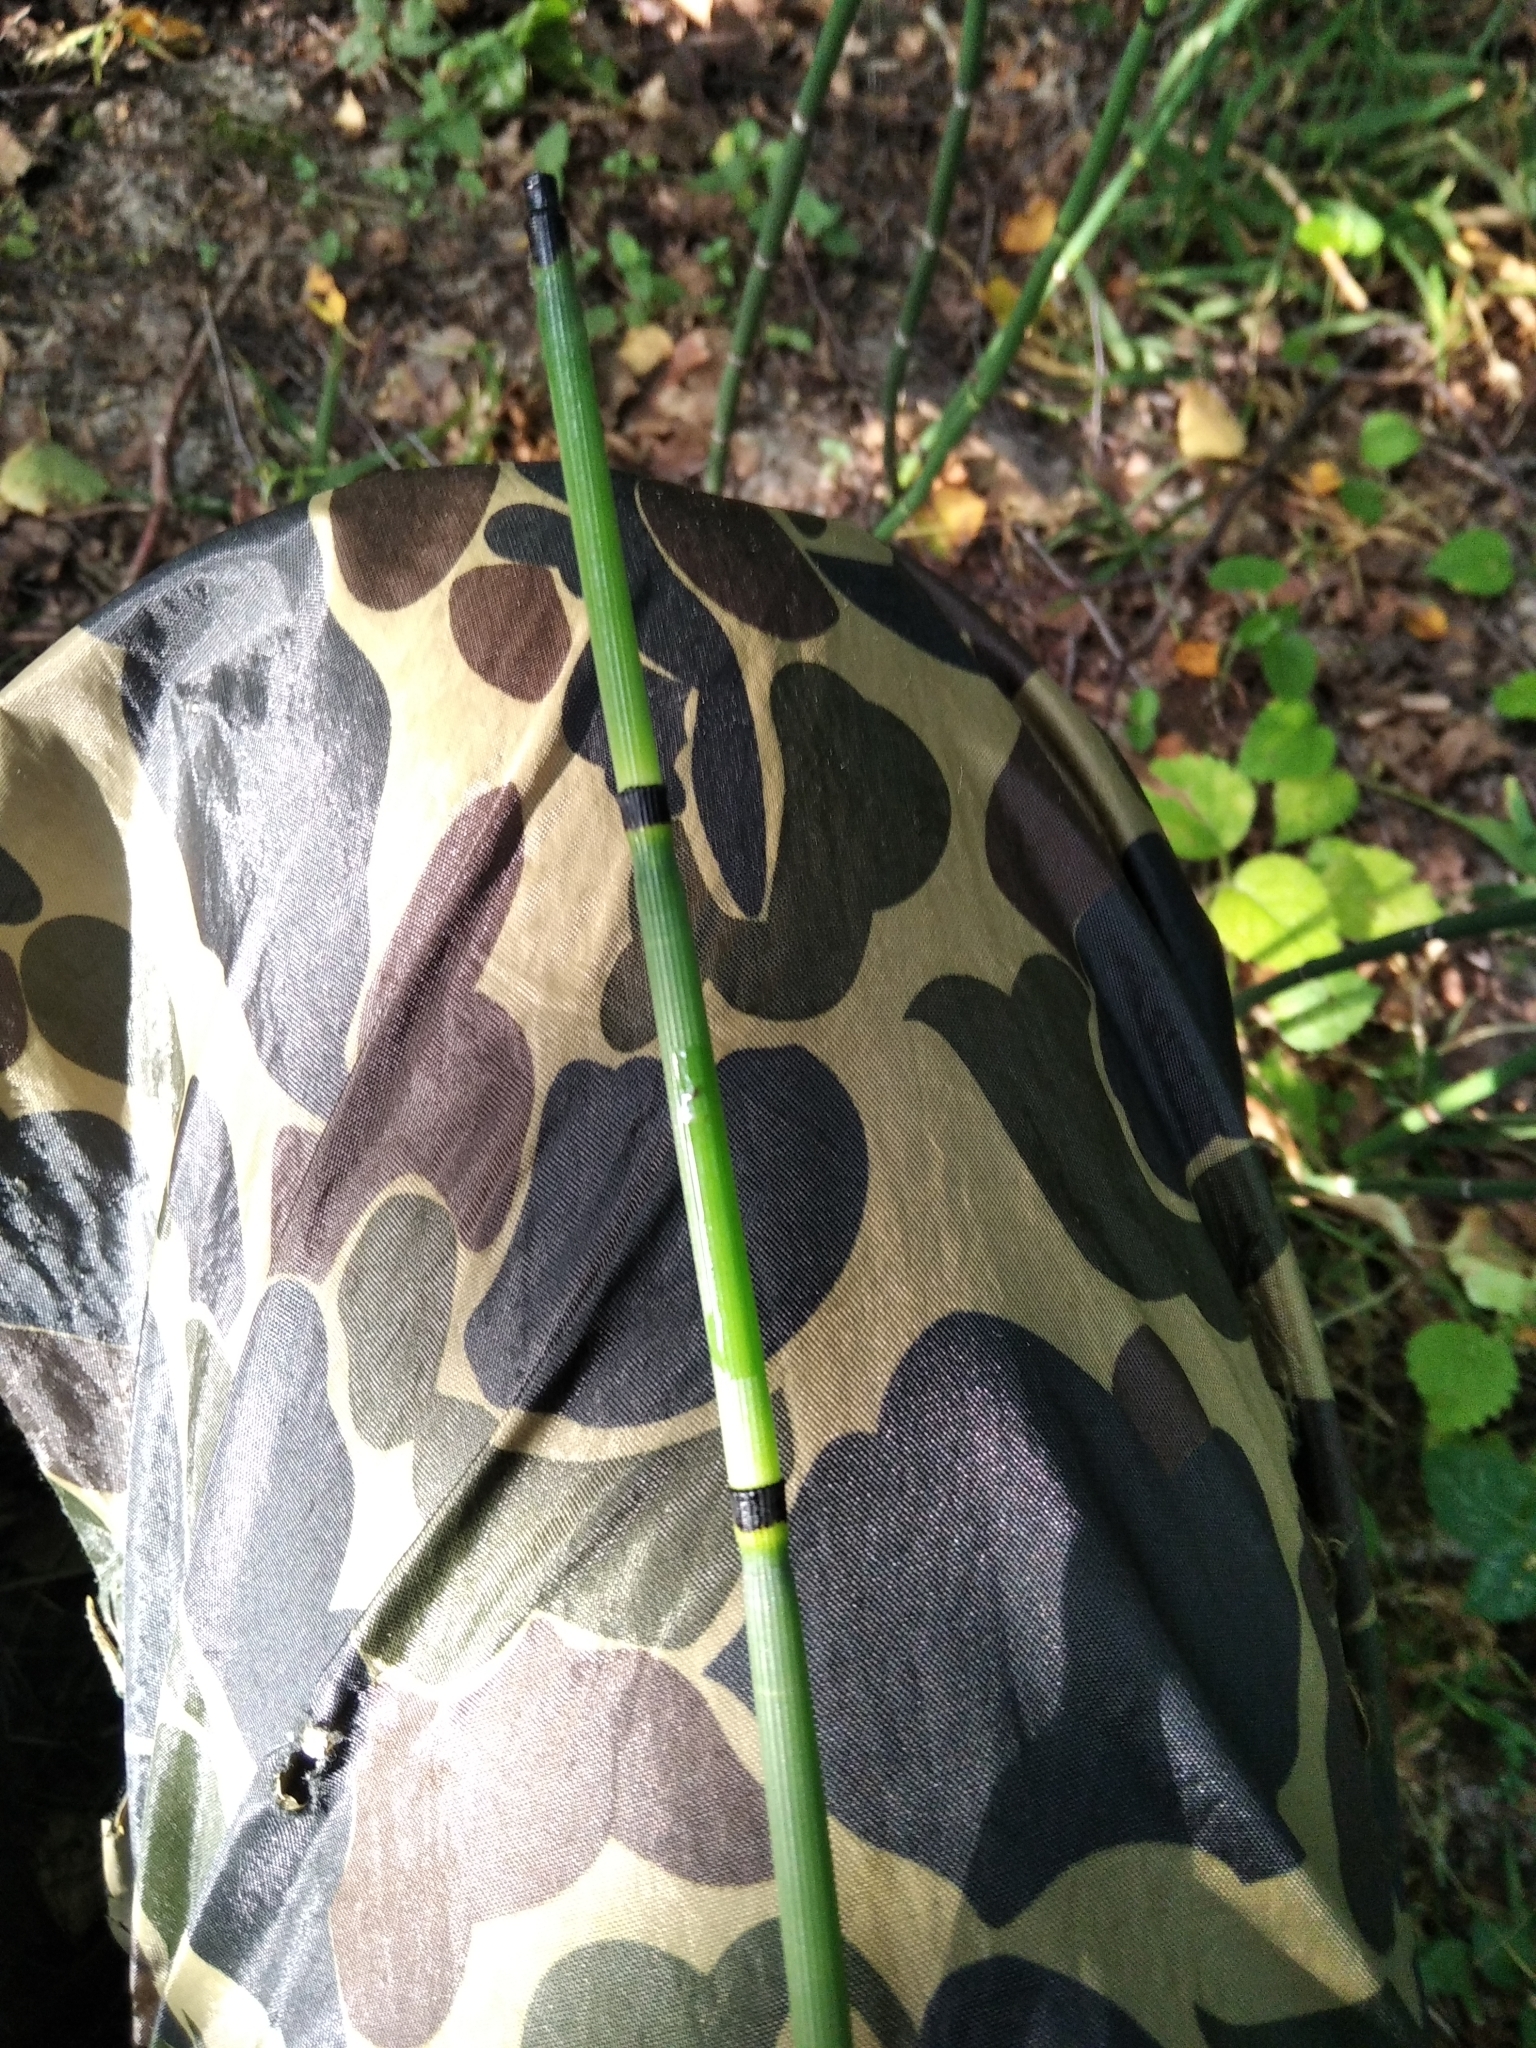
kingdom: Plantae
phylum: Tracheophyta
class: Polypodiopsida
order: Equisetales
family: Equisetaceae
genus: Equisetum
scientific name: Equisetum hyemale
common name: Rough horsetail
